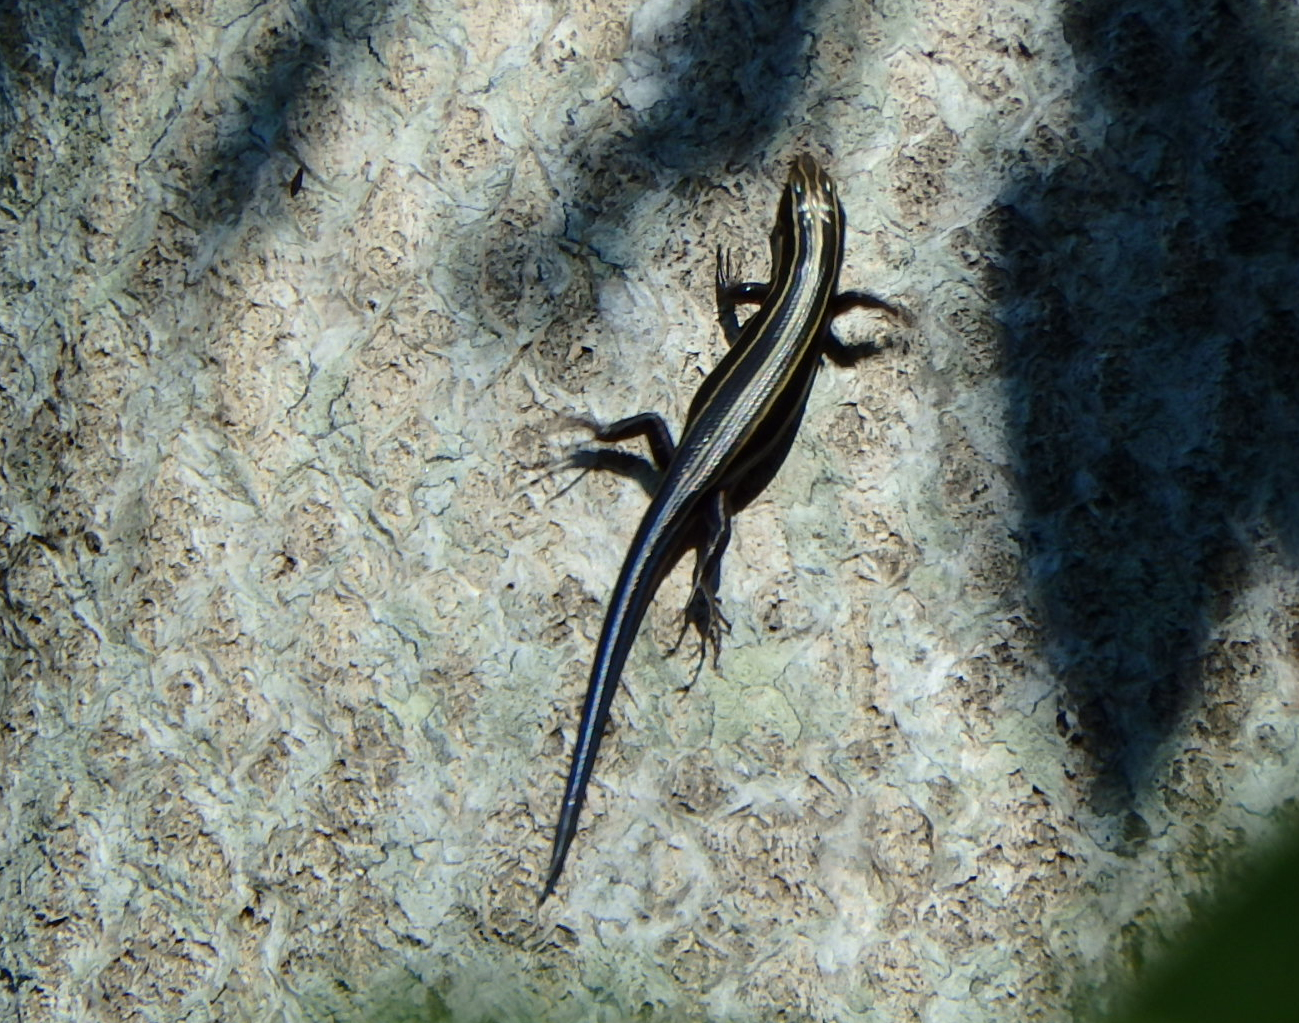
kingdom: Animalia
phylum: Chordata
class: Squamata
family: Scincidae
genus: Plestiodon
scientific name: Plestiodon fasciatus
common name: Five-lined skink
